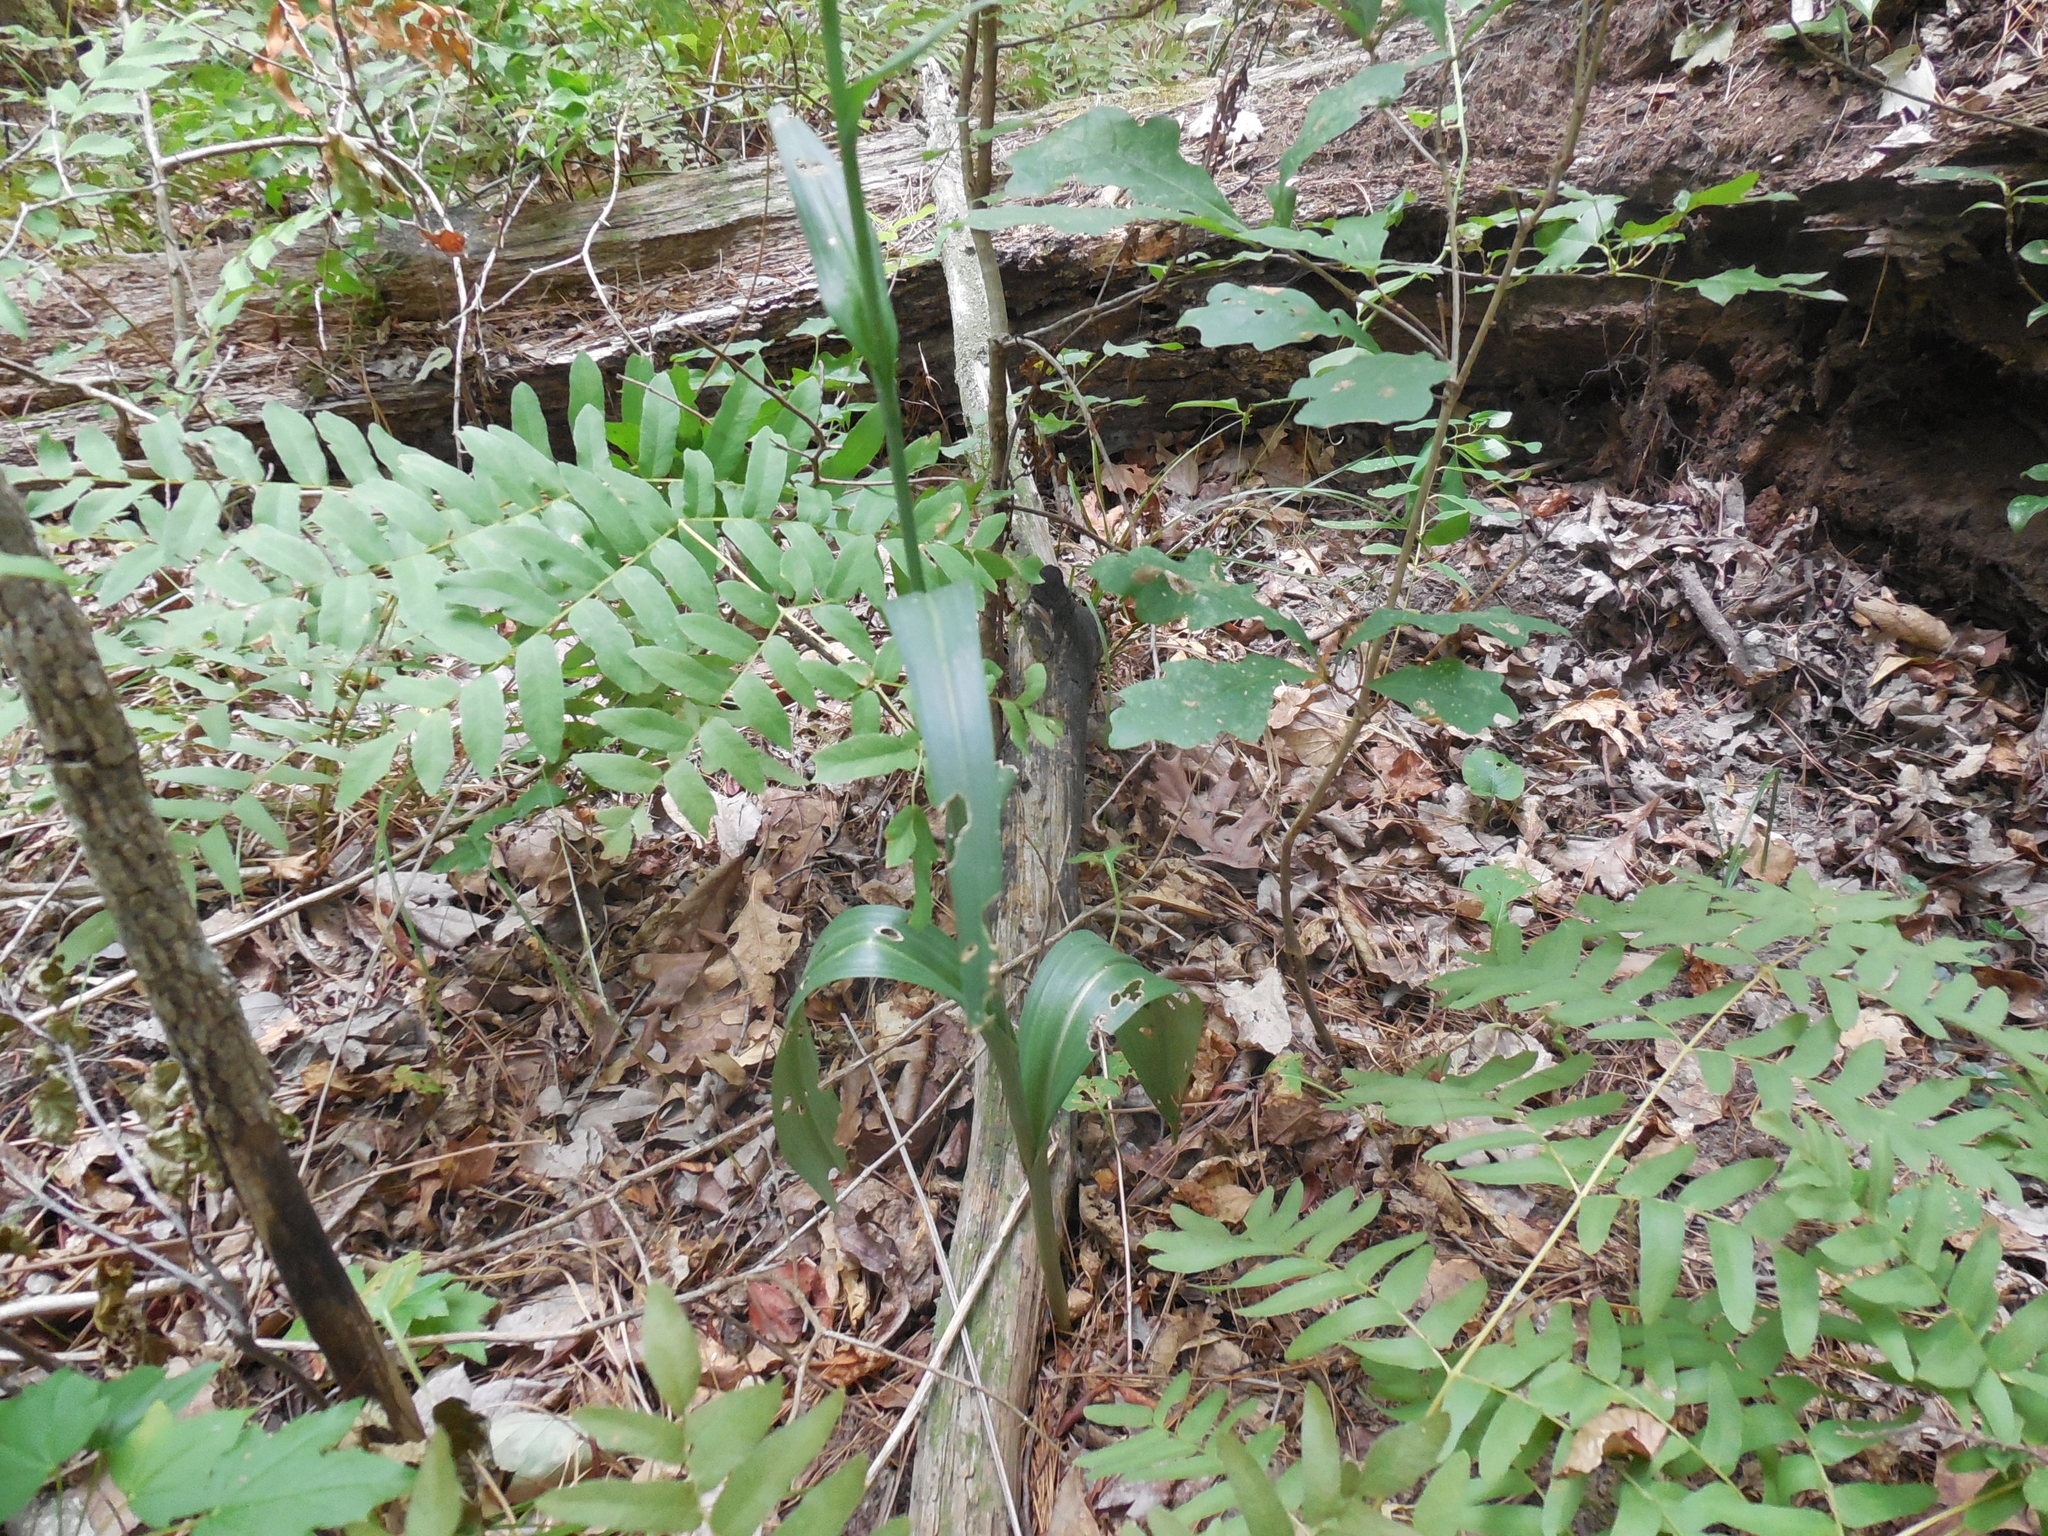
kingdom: Plantae
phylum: Tracheophyta
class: Liliopsida
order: Asparagales
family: Orchidaceae
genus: Platanthera
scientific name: Platanthera ciliaris
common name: Yellow fringed orchid
